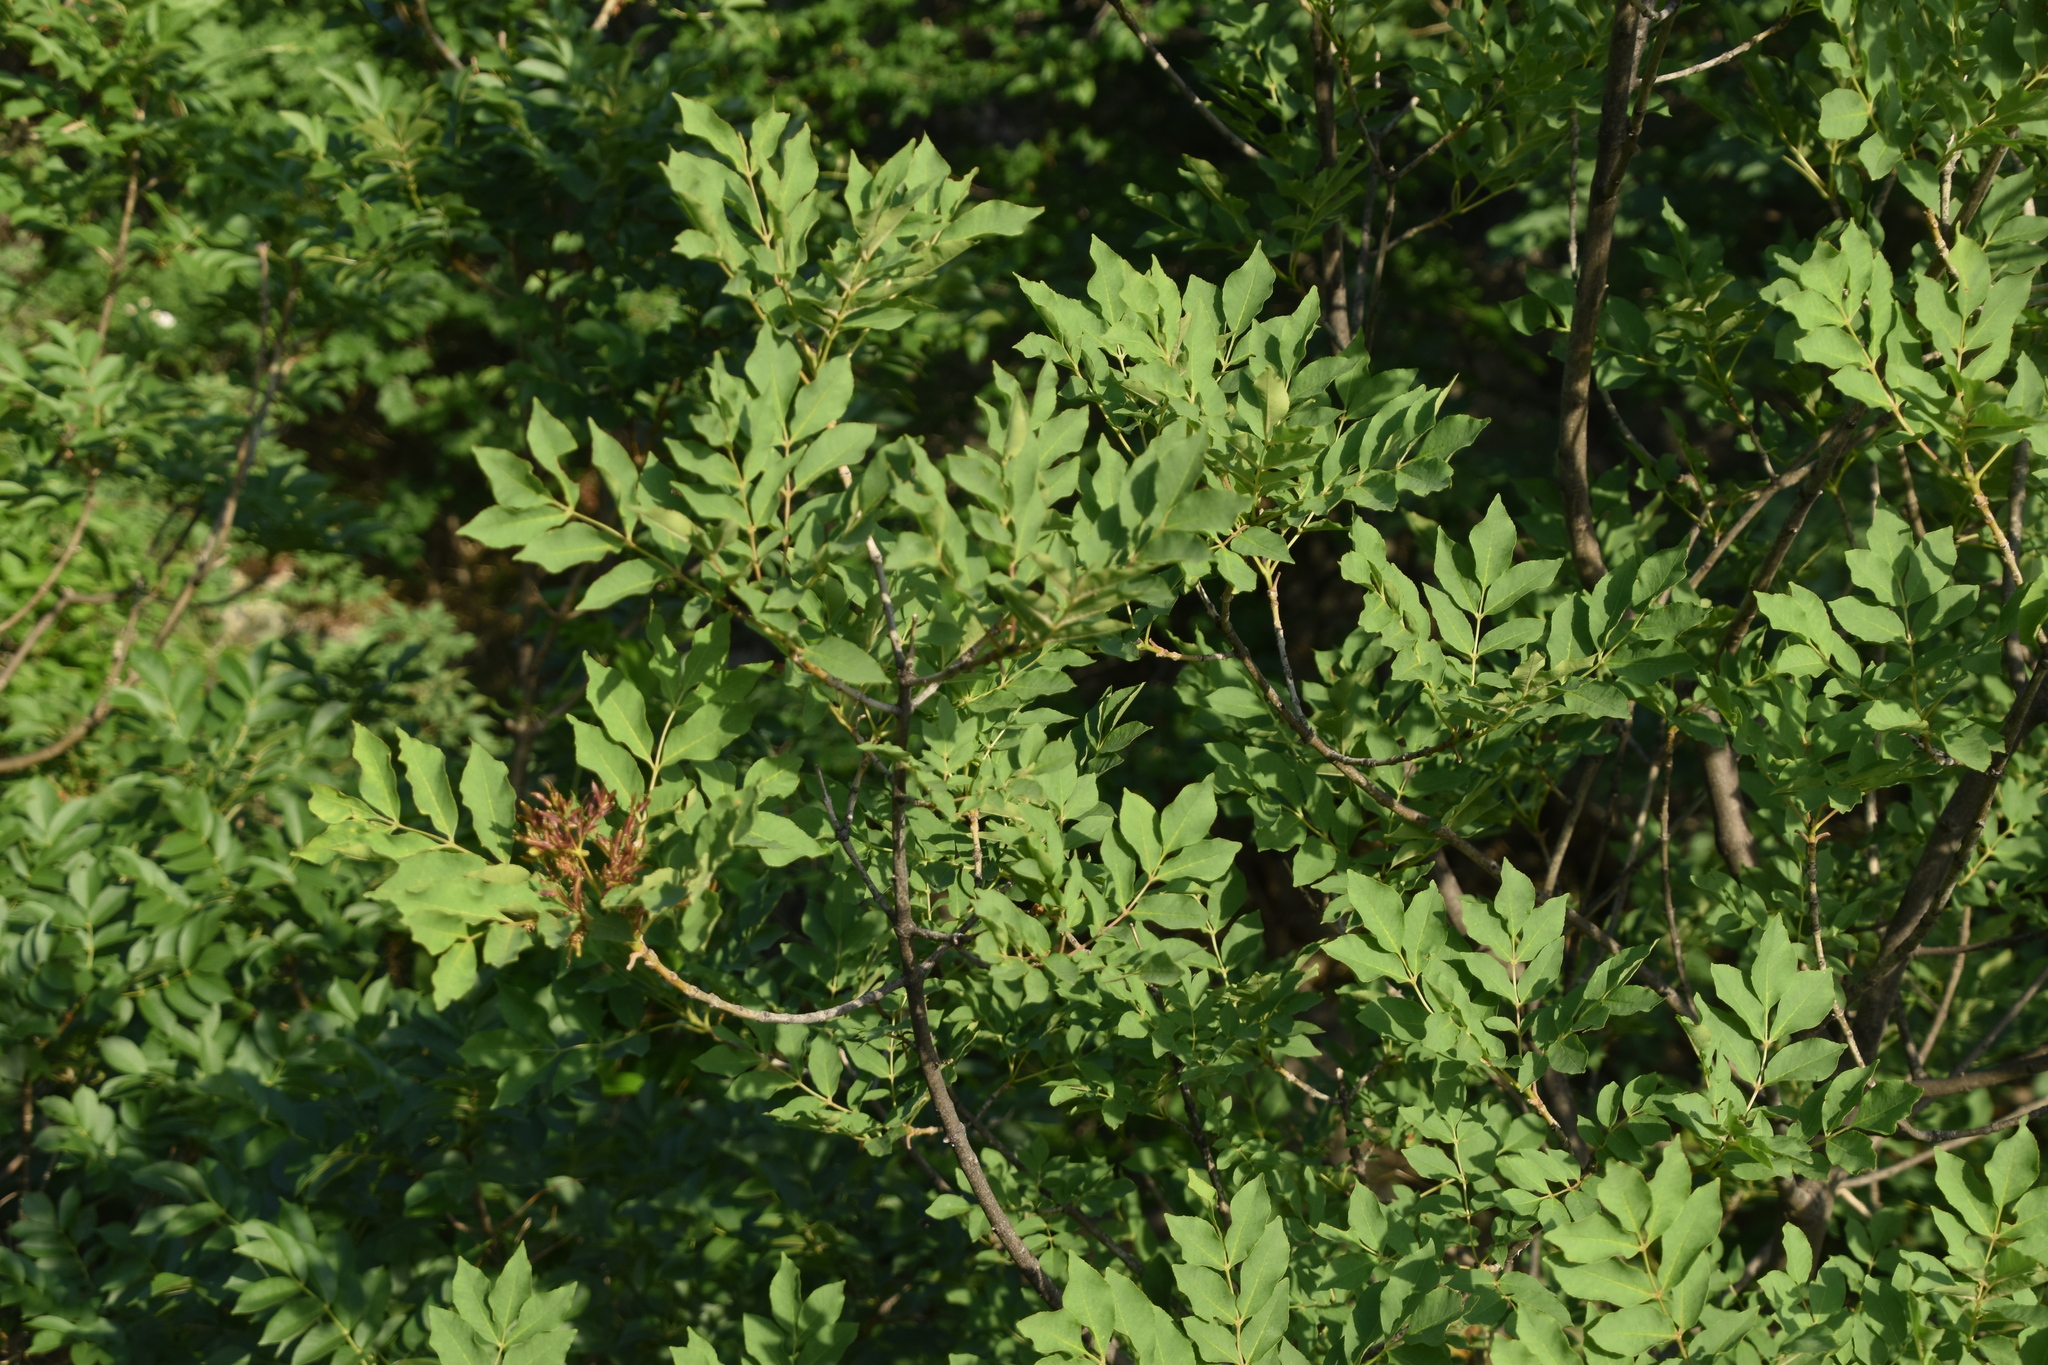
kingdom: Plantae
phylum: Tracheophyta
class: Magnoliopsida
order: Lamiales
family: Oleaceae
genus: Fraxinus
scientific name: Fraxinus ornus
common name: Manna ash
